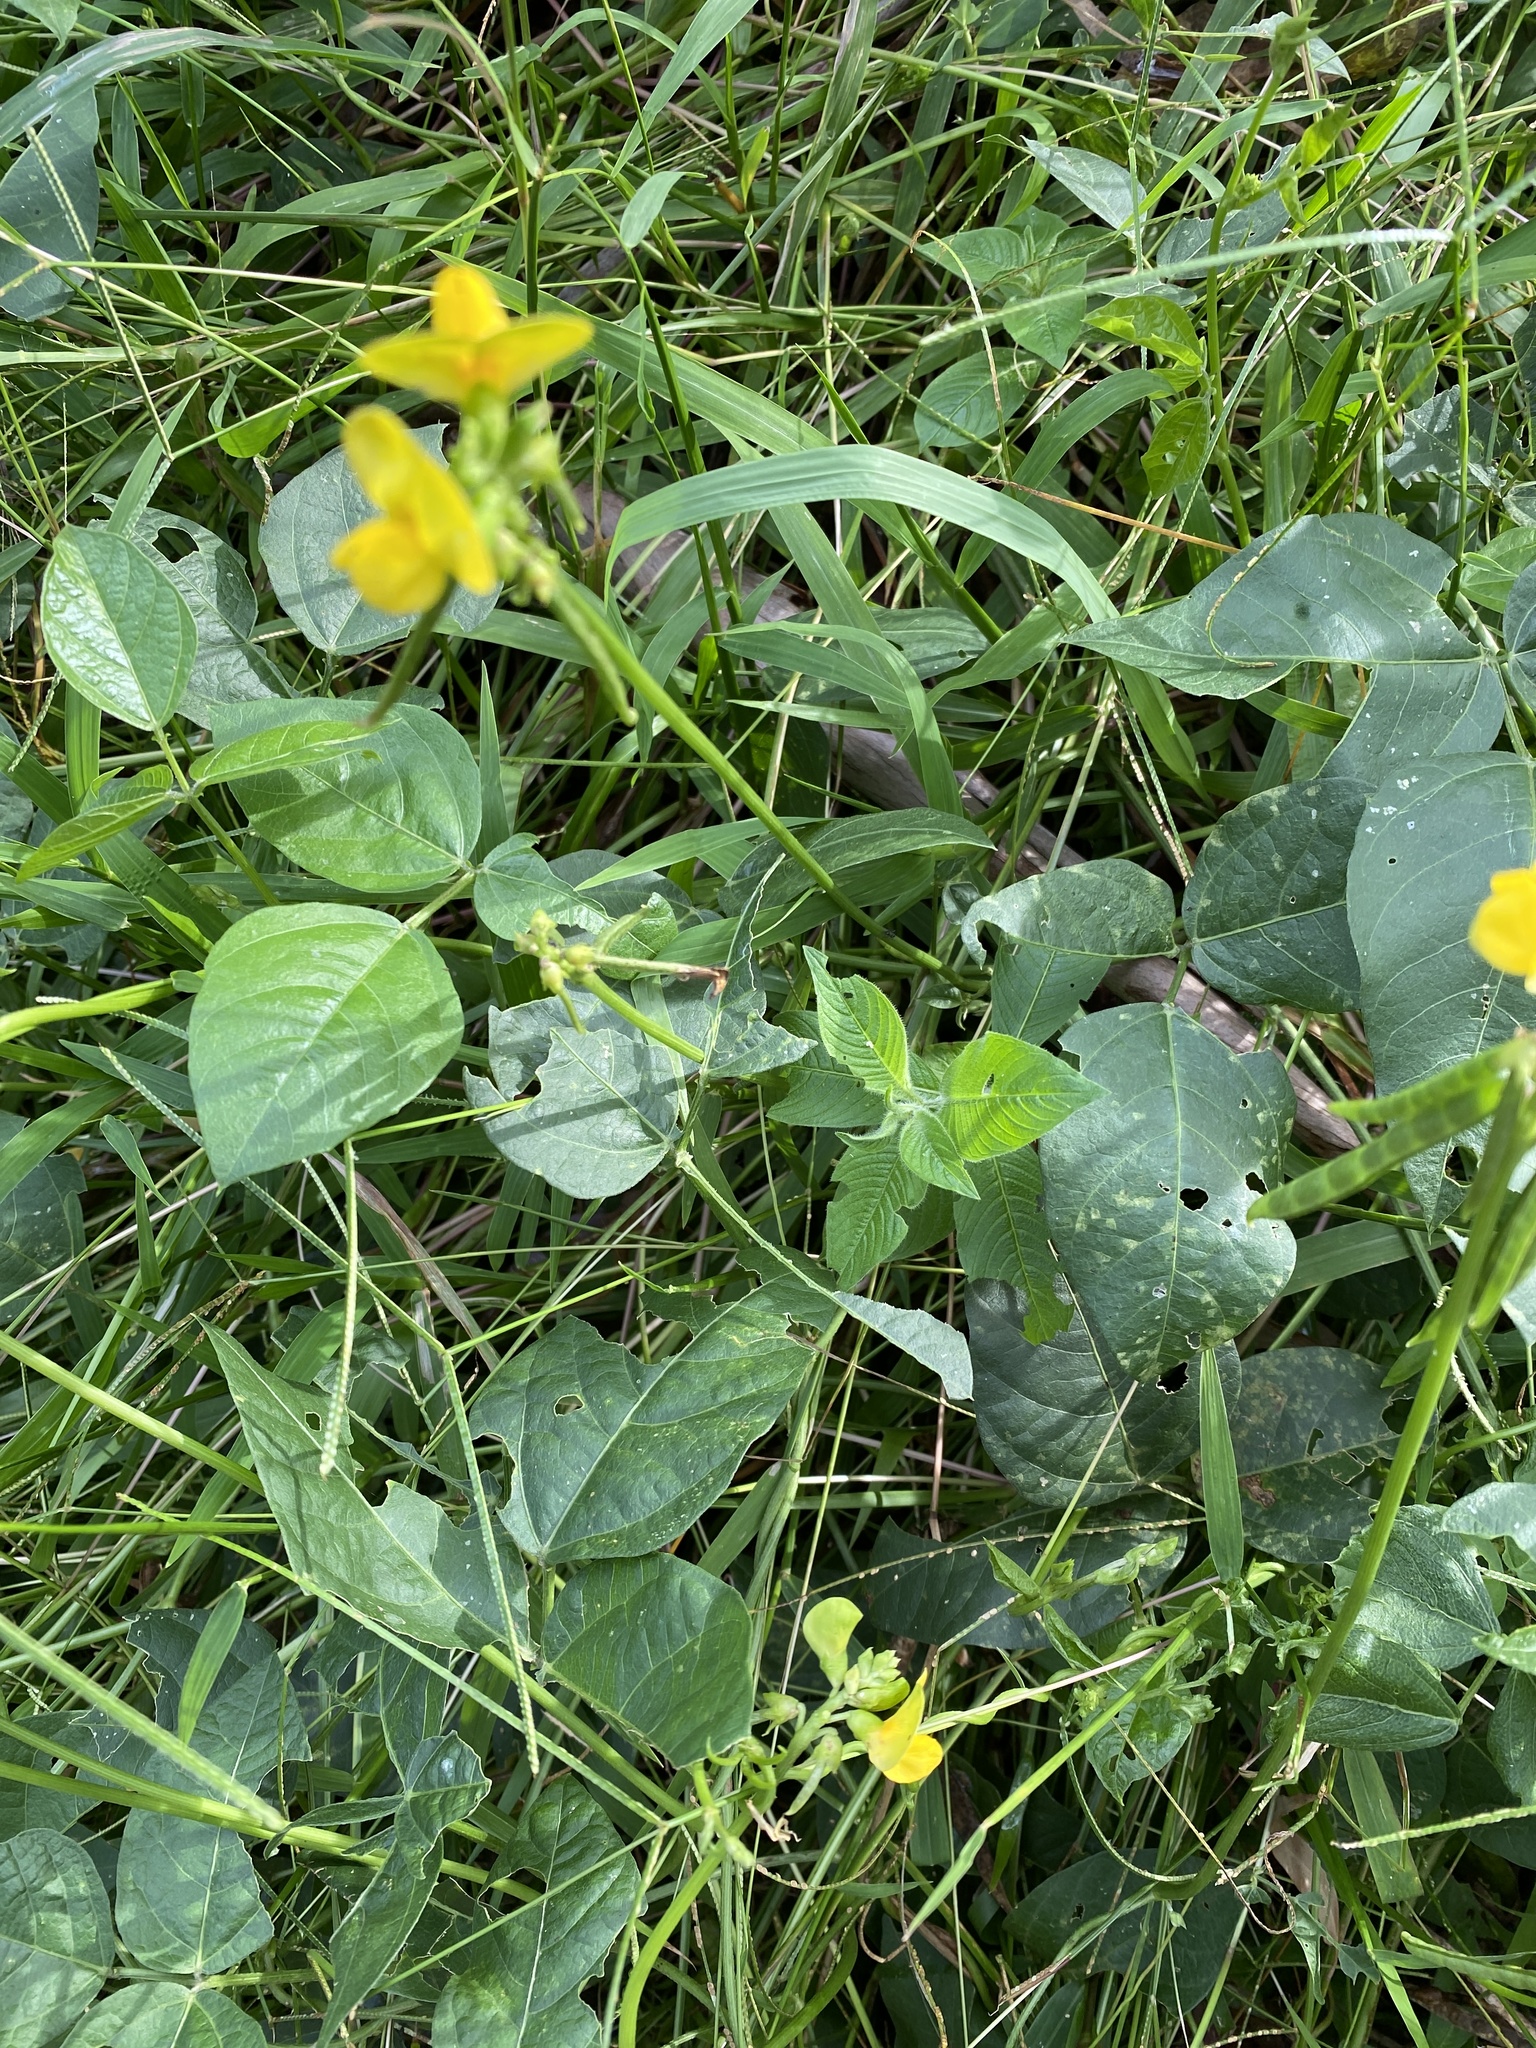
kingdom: Plantae
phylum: Tracheophyta
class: Magnoliopsida
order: Fabales
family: Fabaceae
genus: Vigna
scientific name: Vigna luteola
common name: Hairypod cowpea
